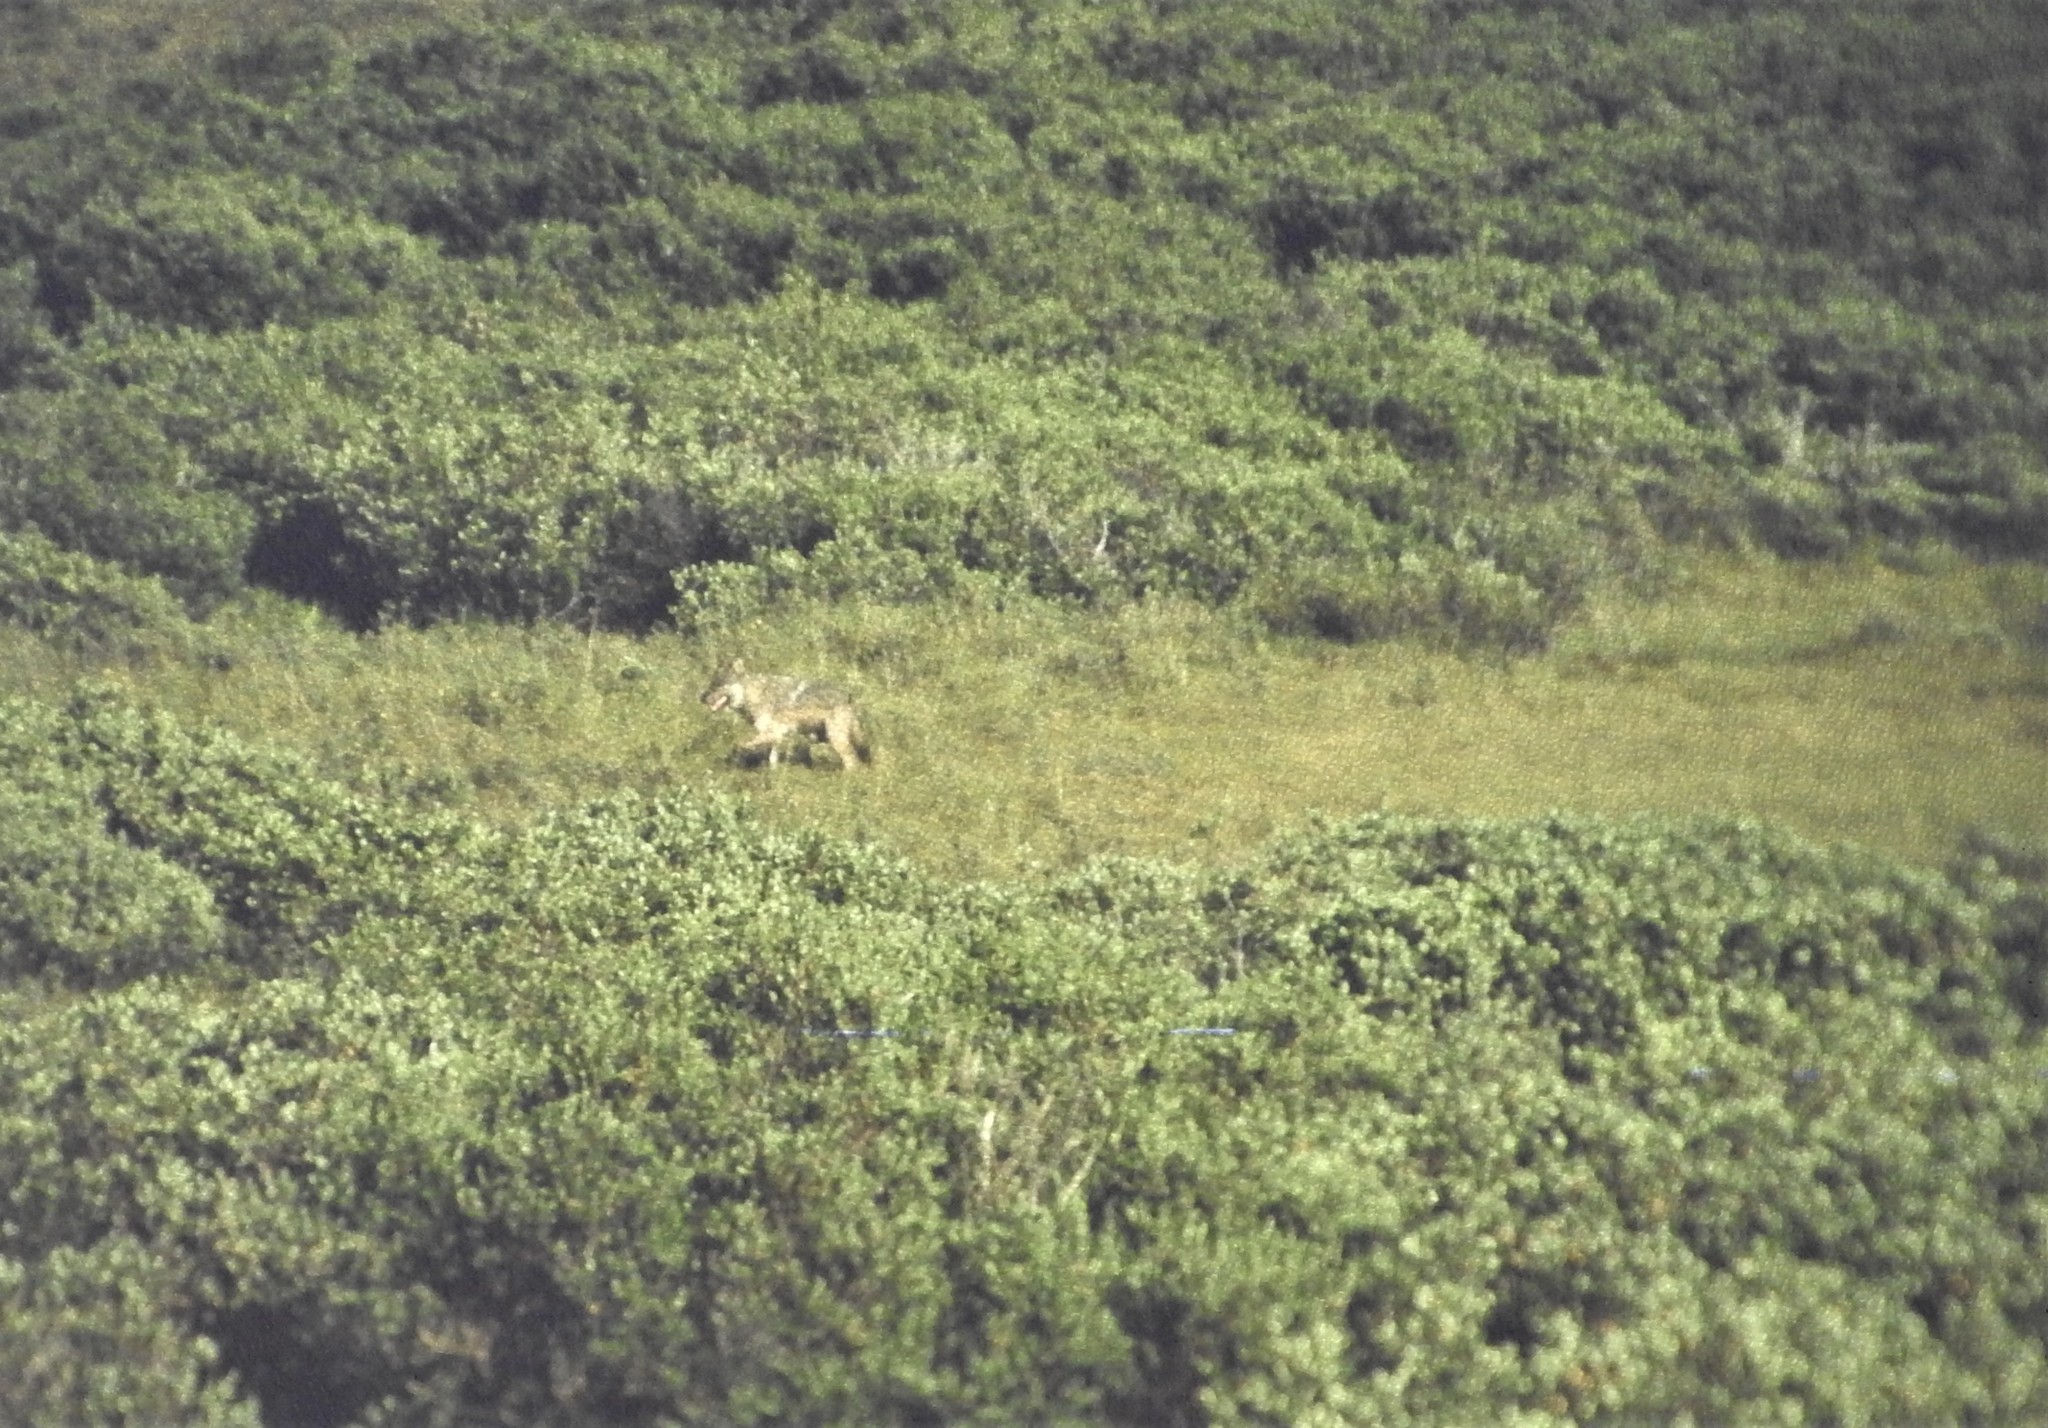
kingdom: Animalia
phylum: Chordata
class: Mammalia
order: Carnivora
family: Canidae
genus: Canis
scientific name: Canis lupus
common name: Gray wolf
